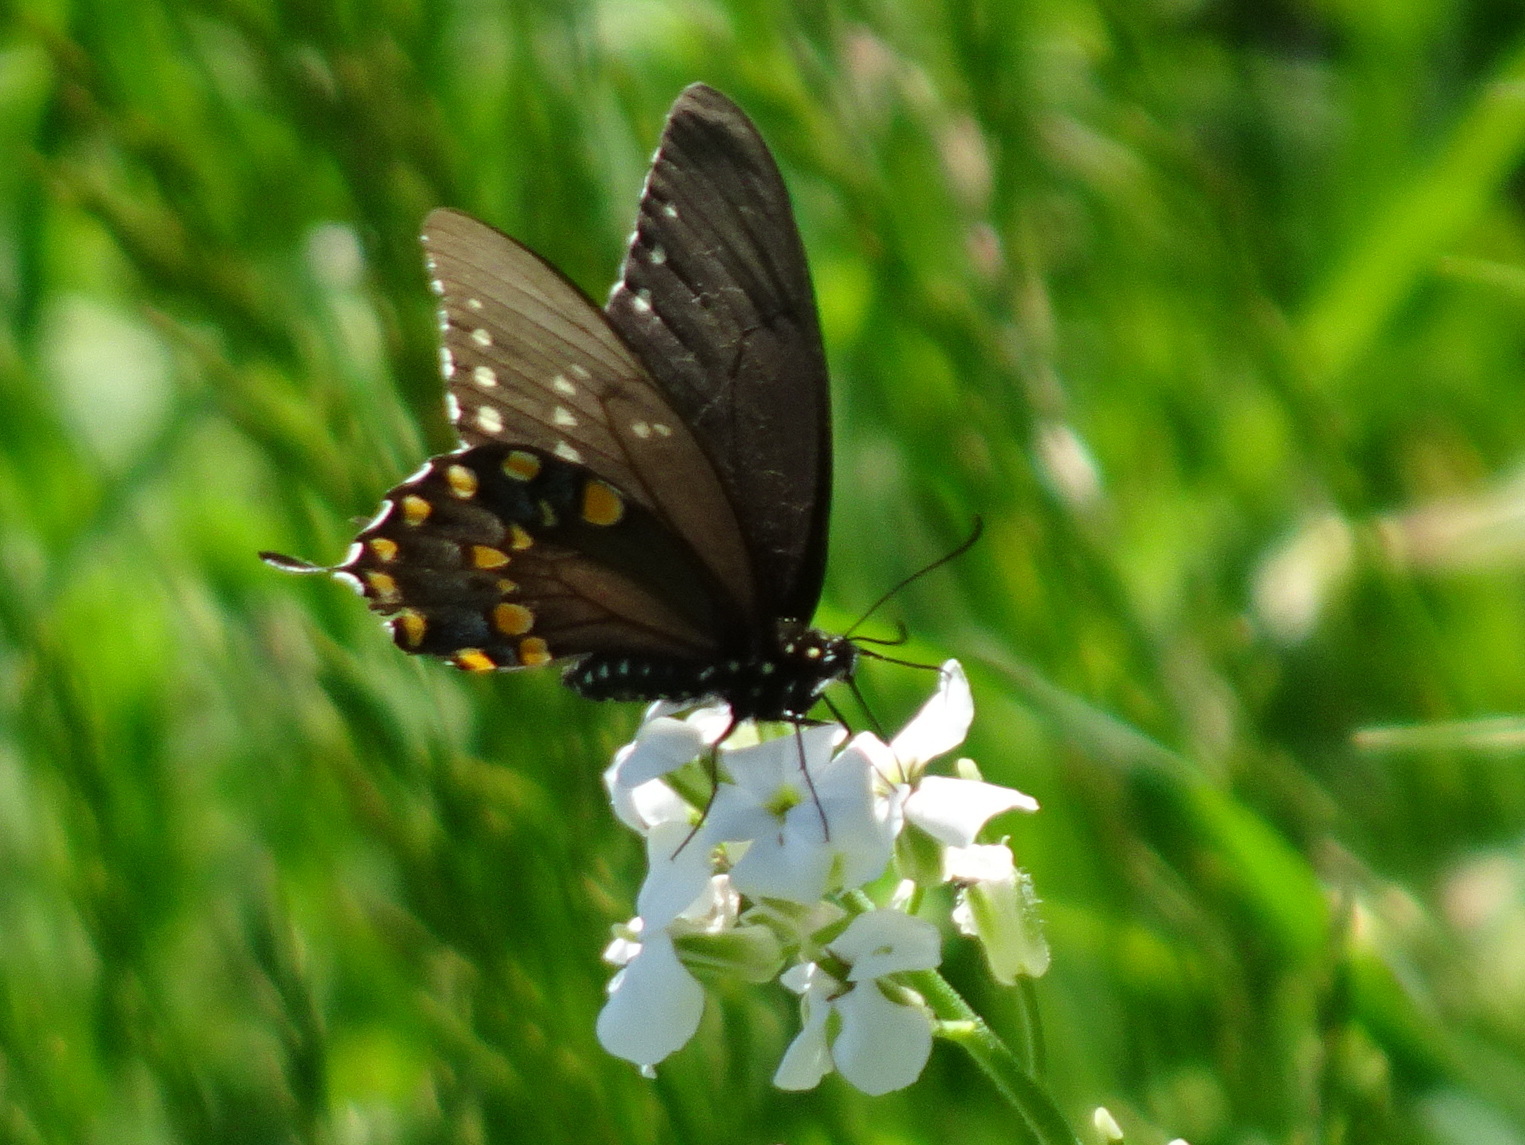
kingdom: Animalia
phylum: Arthropoda
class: Insecta
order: Lepidoptera
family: Papilionidae
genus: Papilio
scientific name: Papilio troilus
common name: Spicebush swallowtail
